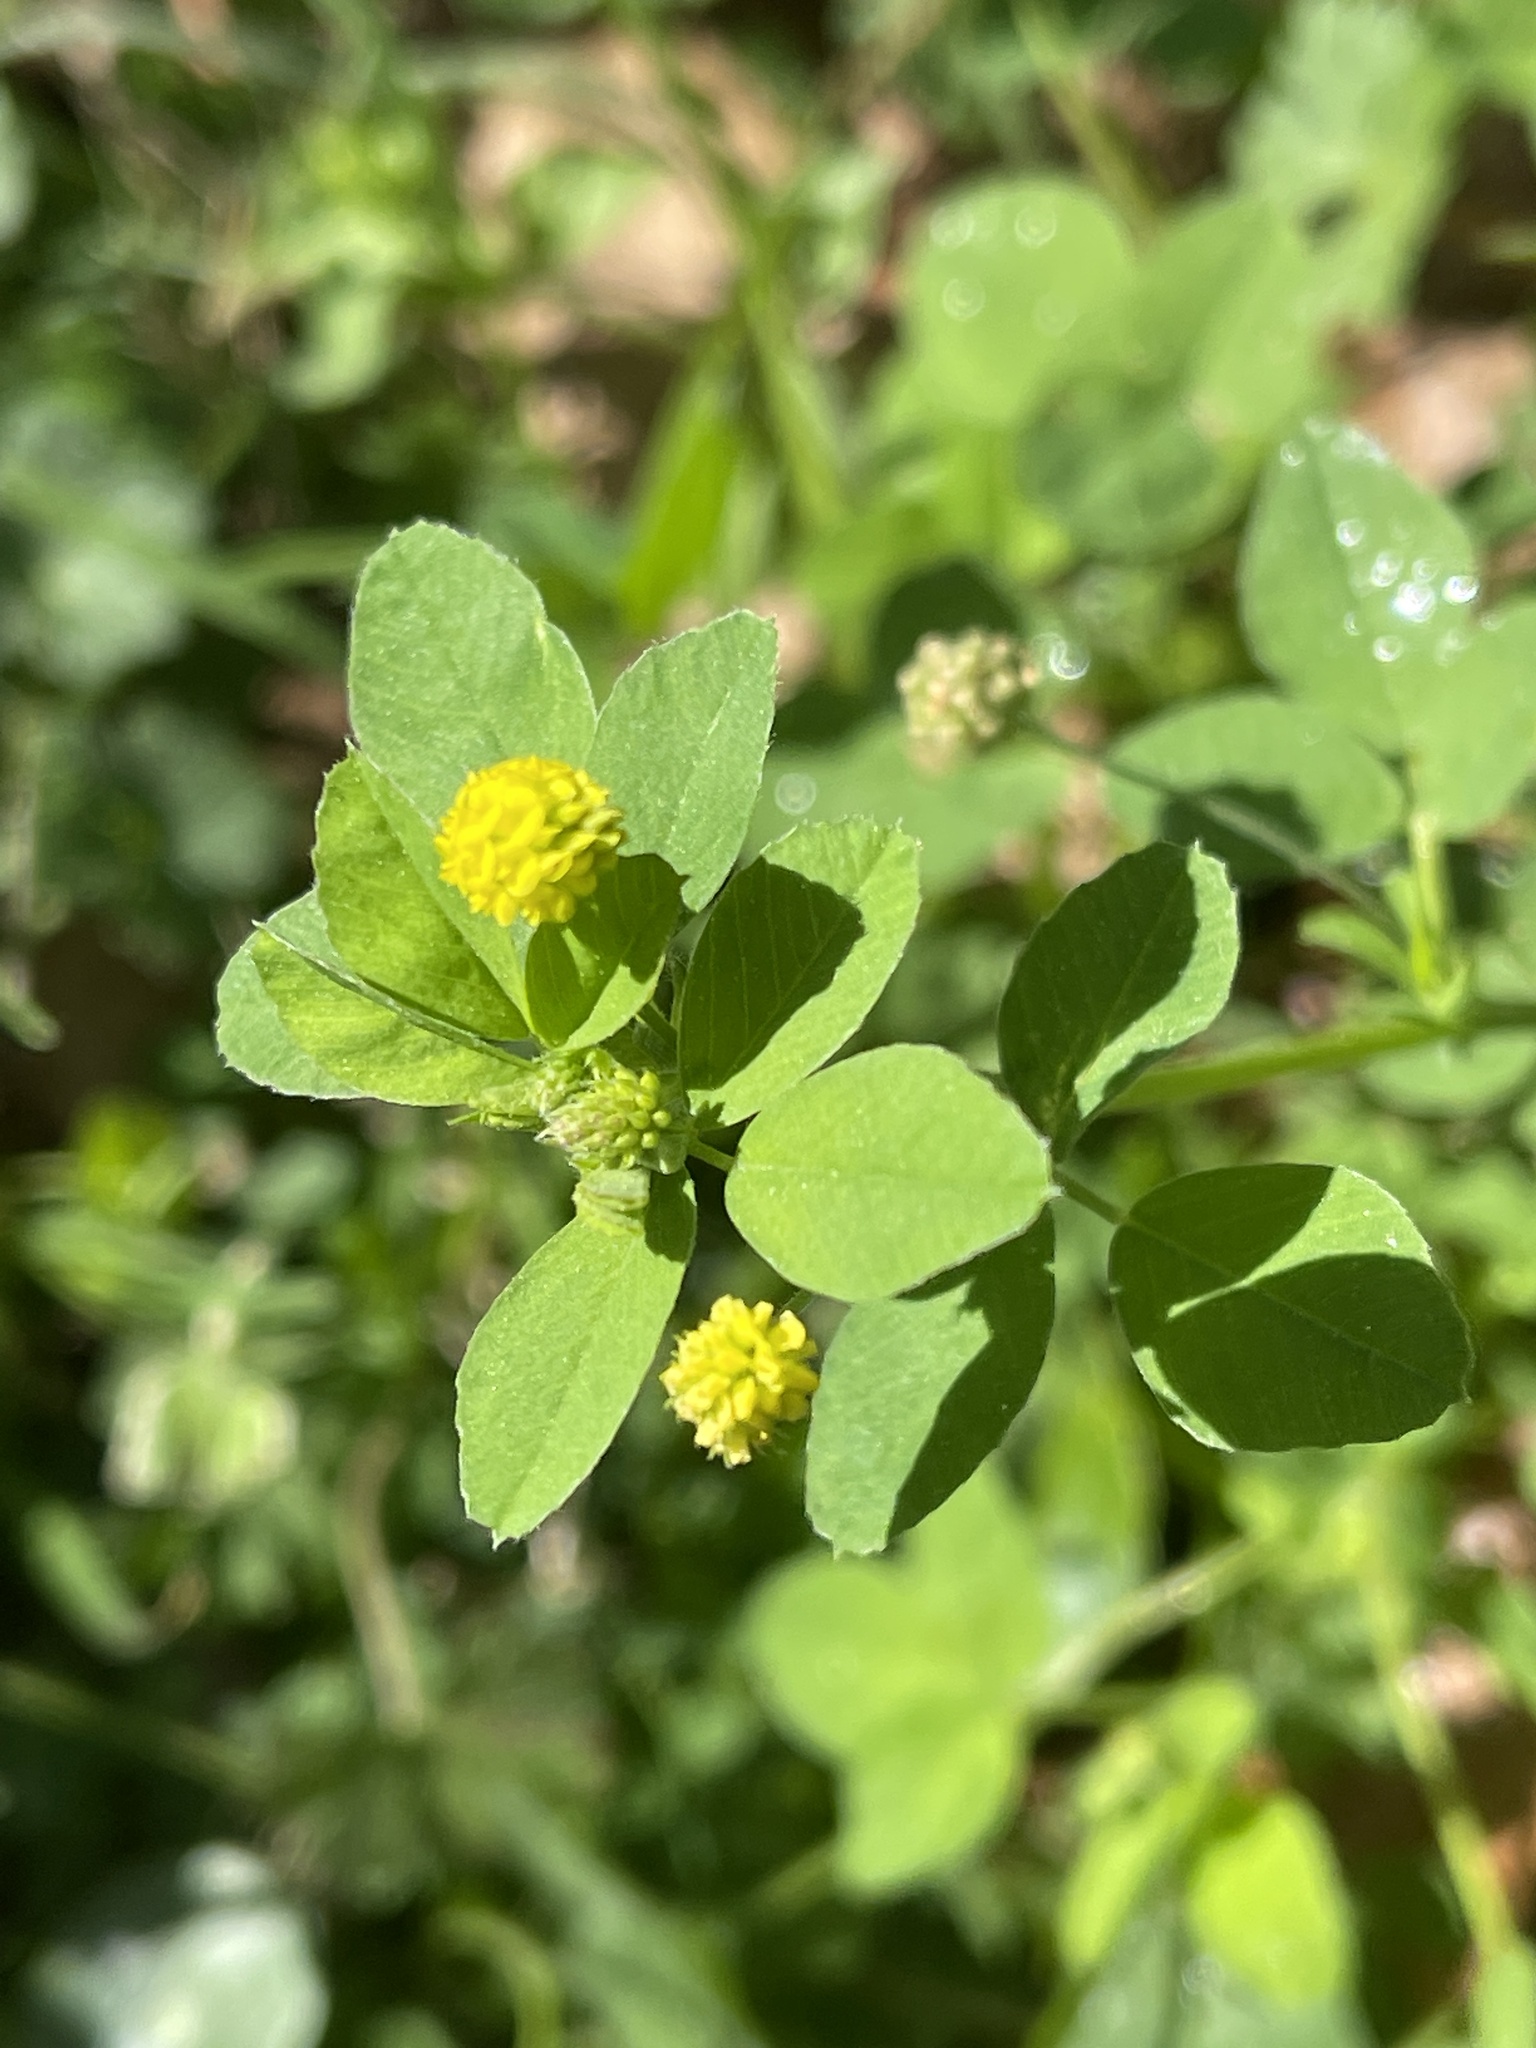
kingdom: Plantae
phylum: Tracheophyta
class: Magnoliopsida
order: Fabales
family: Fabaceae
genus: Medicago
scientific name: Medicago lupulina
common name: Black medick
